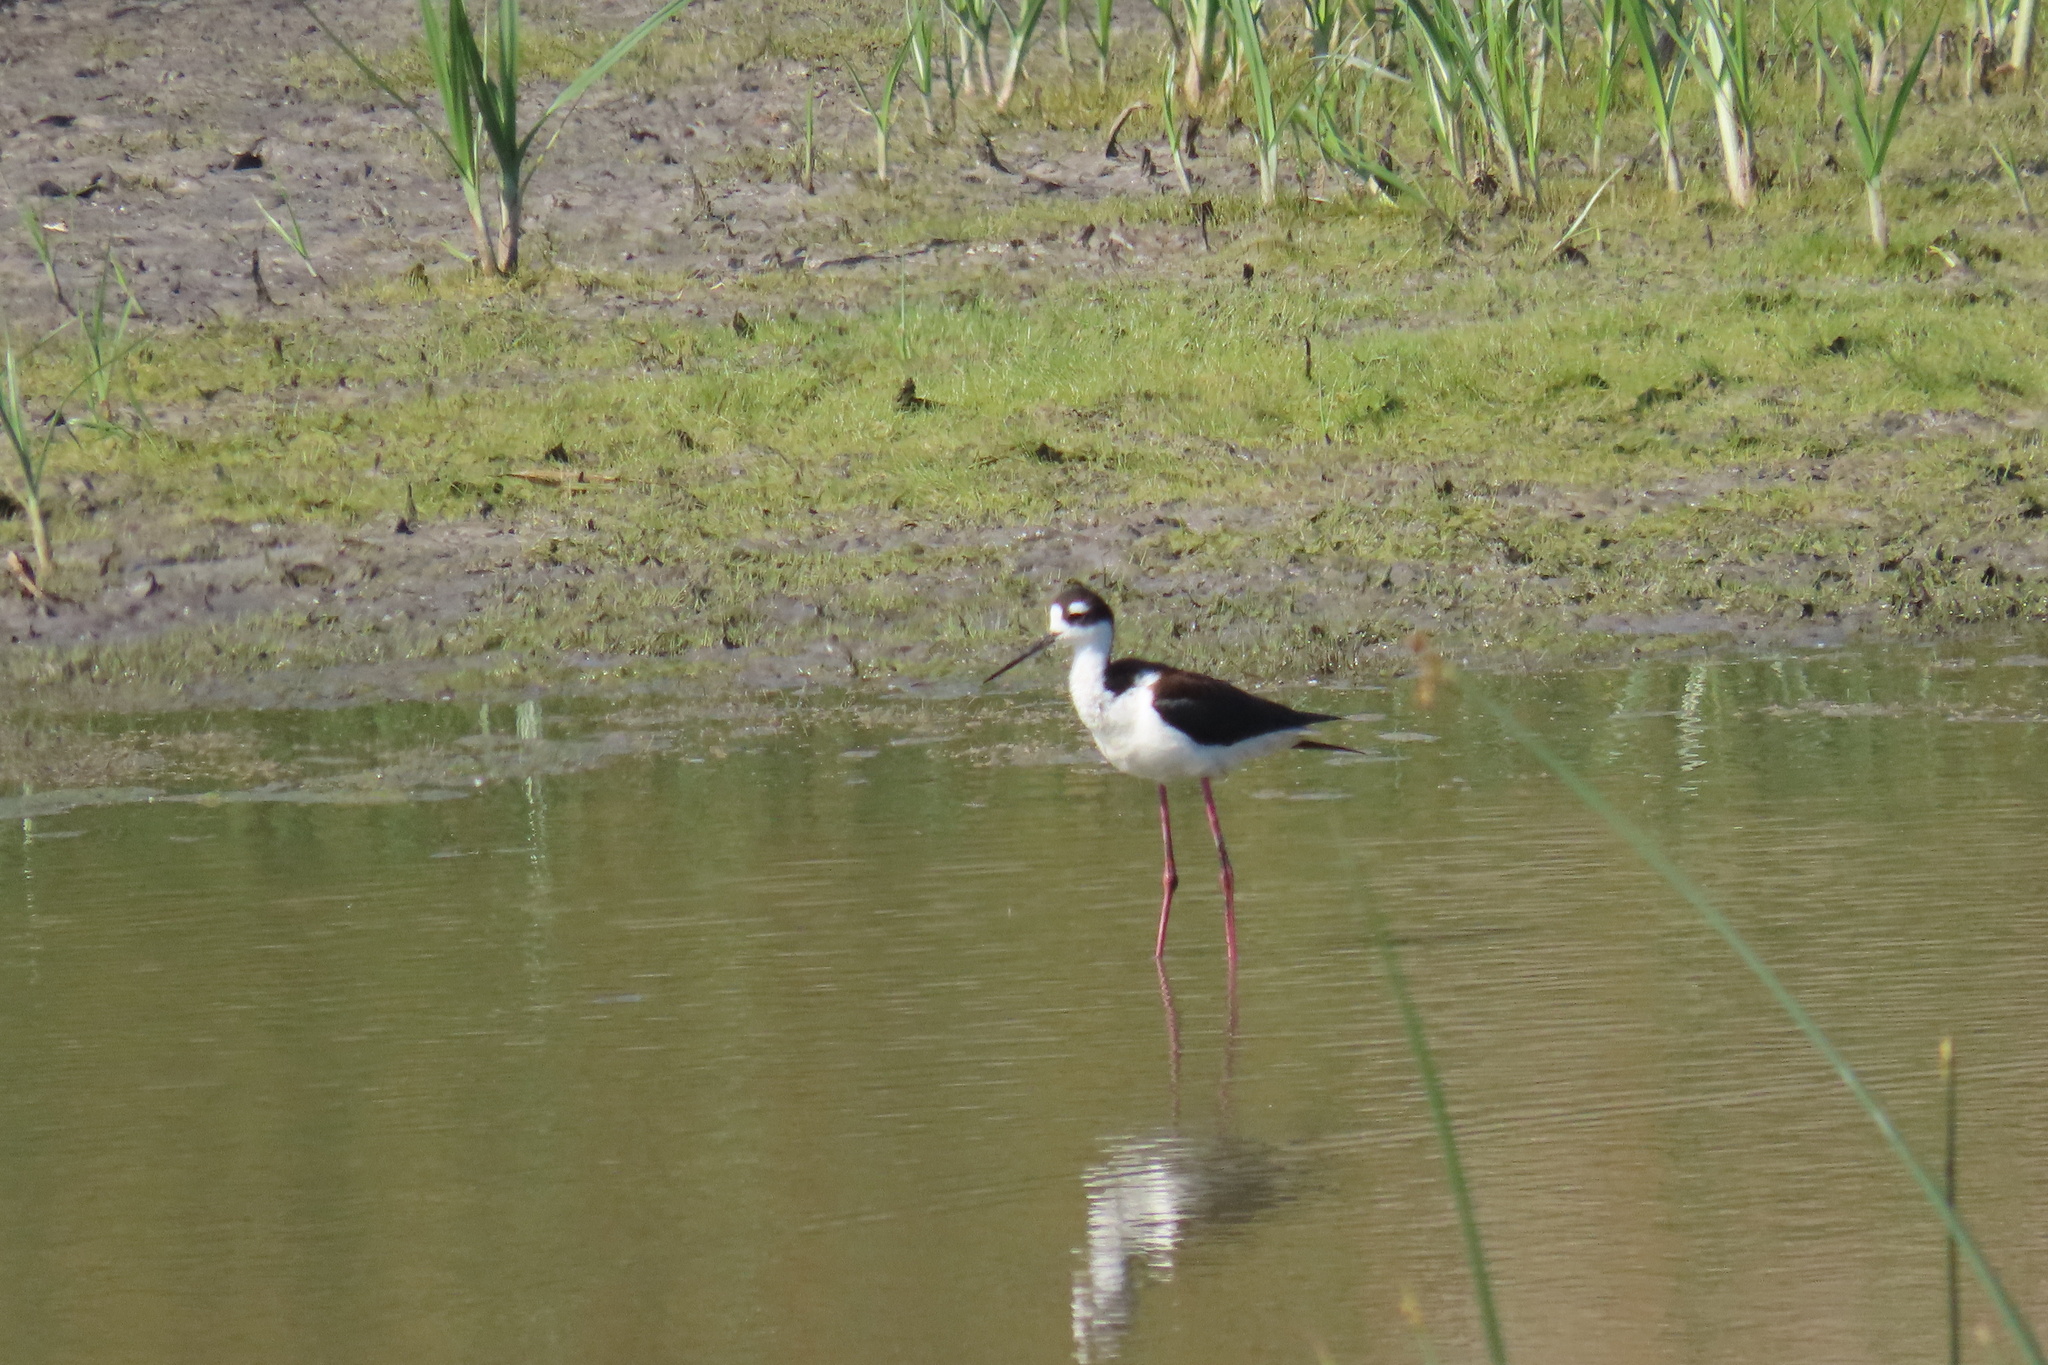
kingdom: Animalia
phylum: Chordata
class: Aves
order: Charadriiformes
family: Recurvirostridae
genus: Himantopus
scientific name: Himantopus mexicanus
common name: Black-necked stilt
